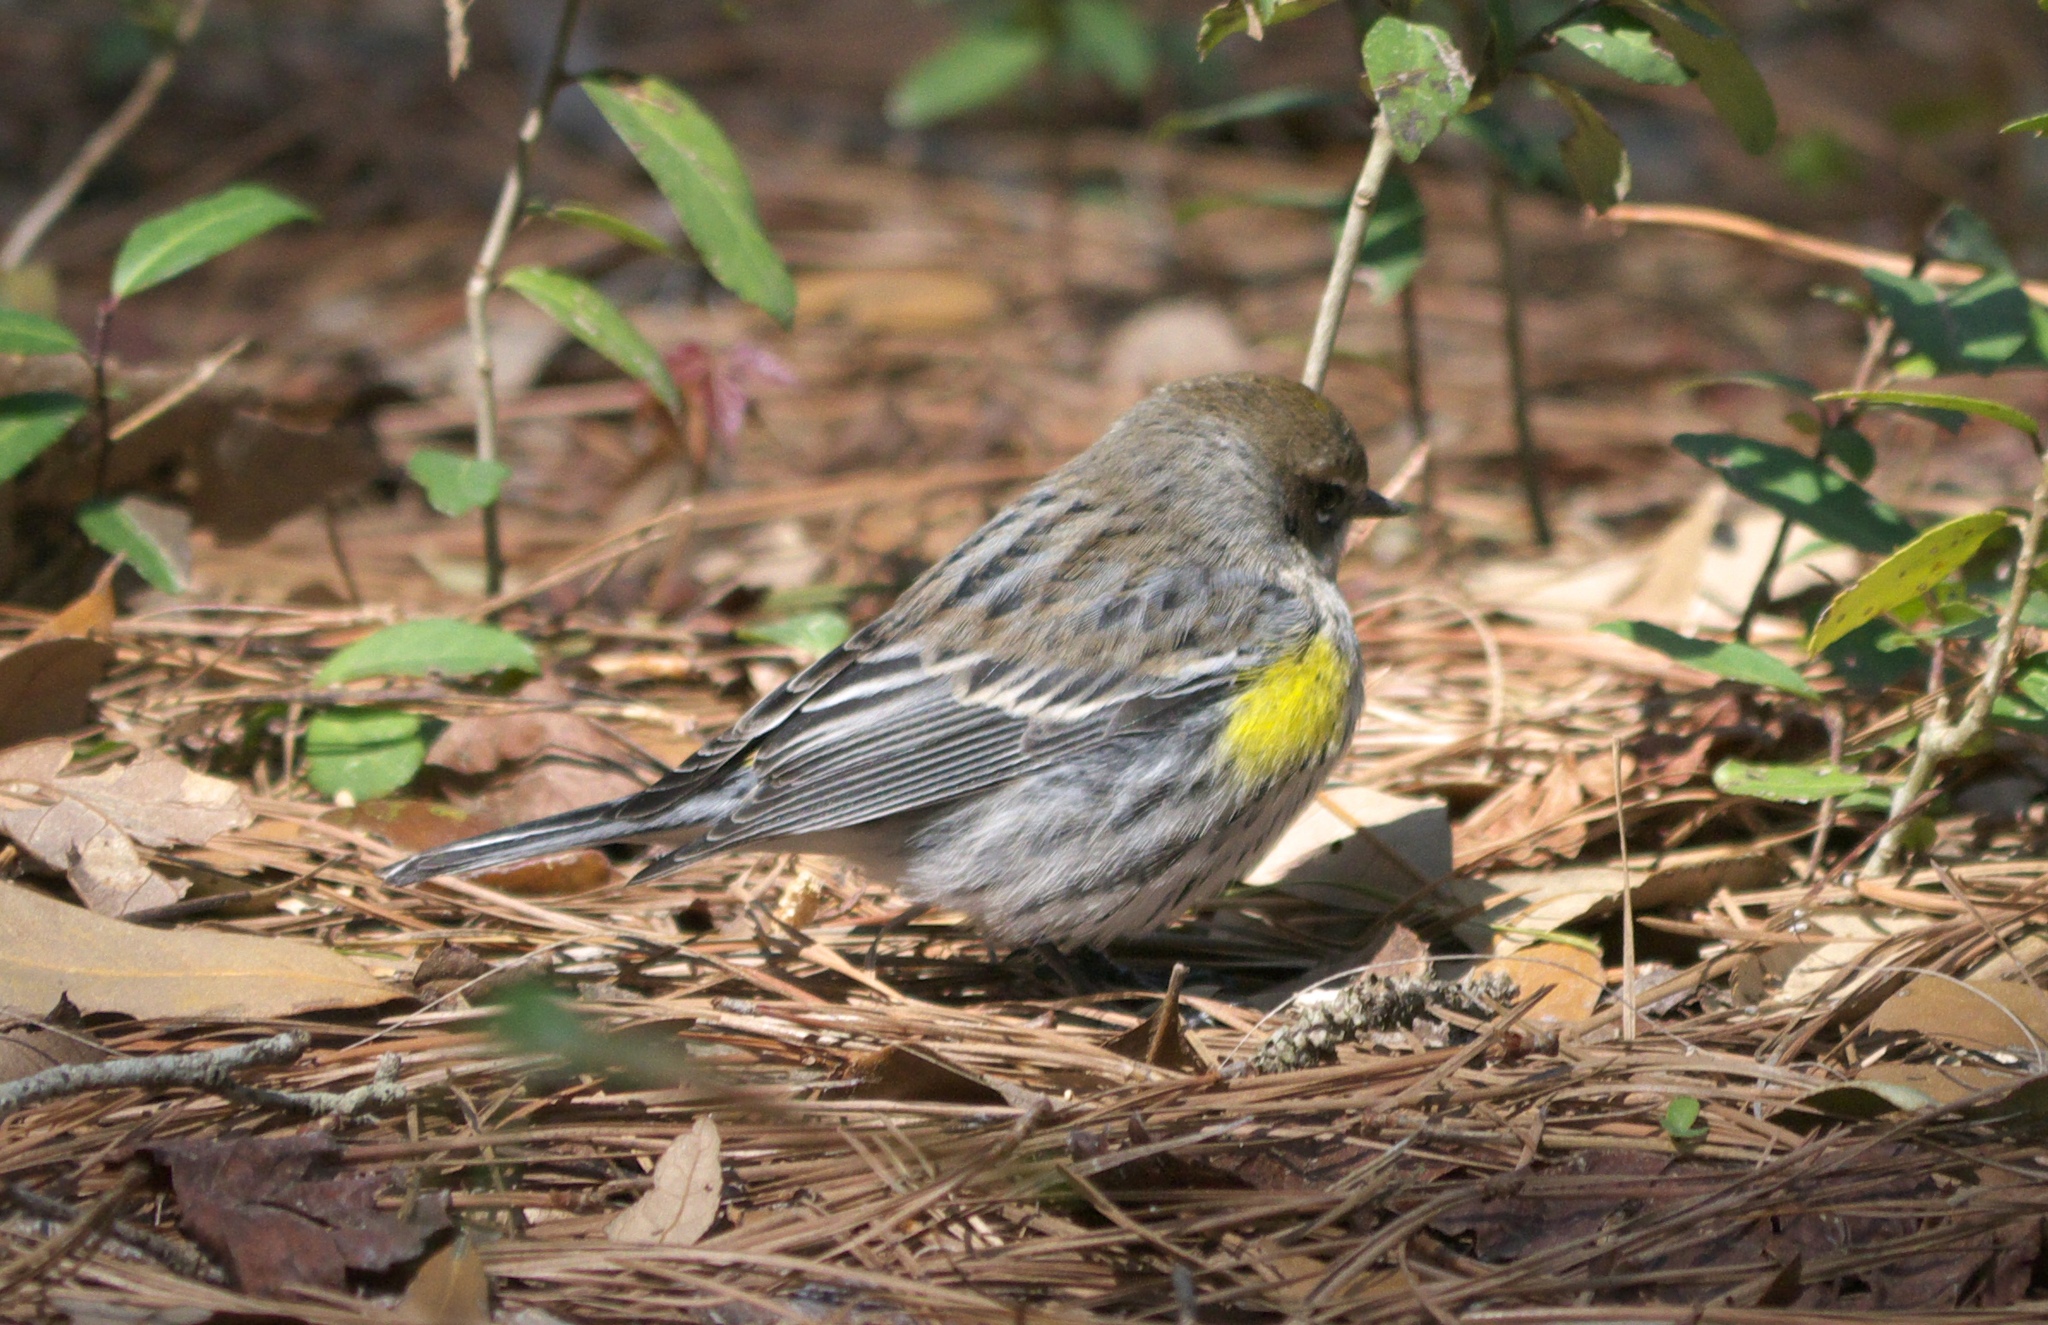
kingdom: Animalia
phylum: Chordata
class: Aves
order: Passeriformes
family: Parulidae
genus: Setophaga
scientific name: Setophaga coronata
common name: Myrtle warbler
